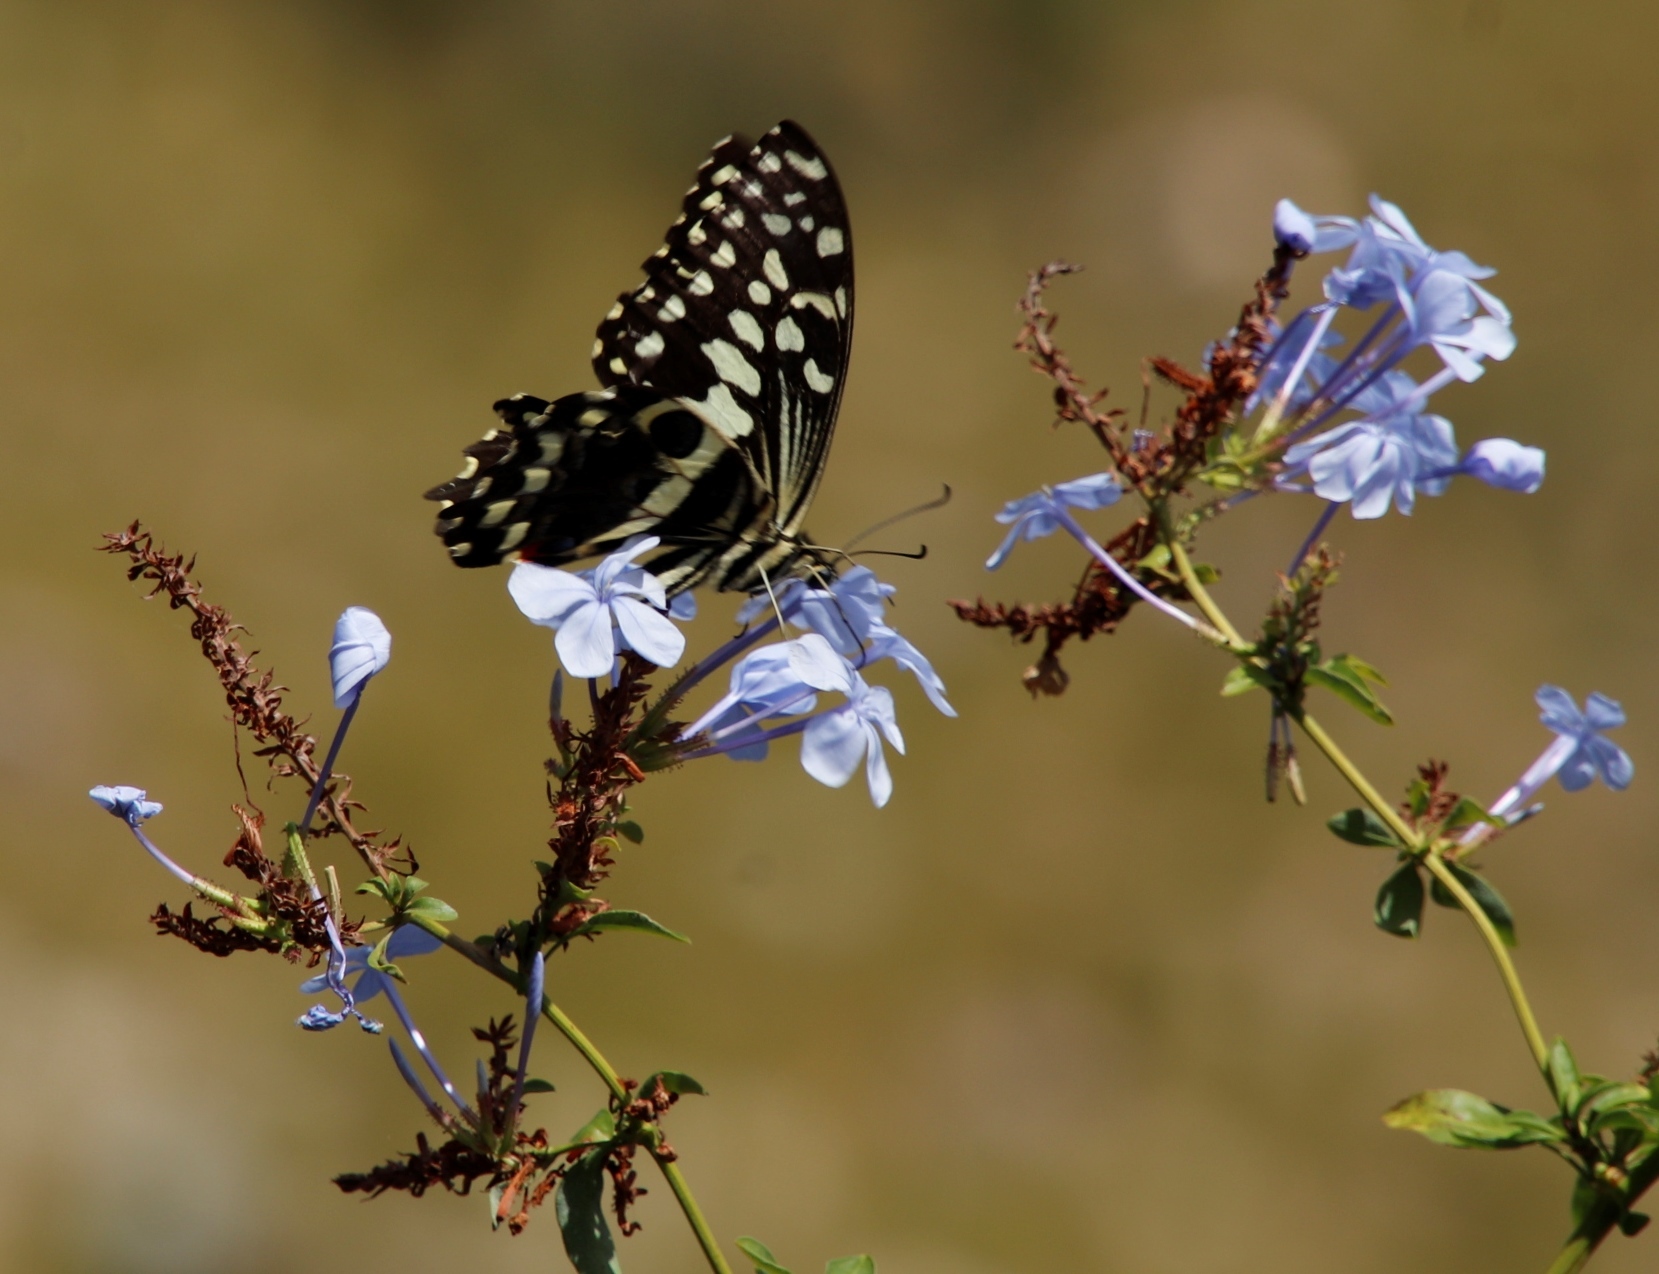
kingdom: Animalia
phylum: Arthropoda
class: Insecta
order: Lepidoptera
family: Papilionidae
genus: Papilio
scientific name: Papilio demodocus
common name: Christmas butterfly
